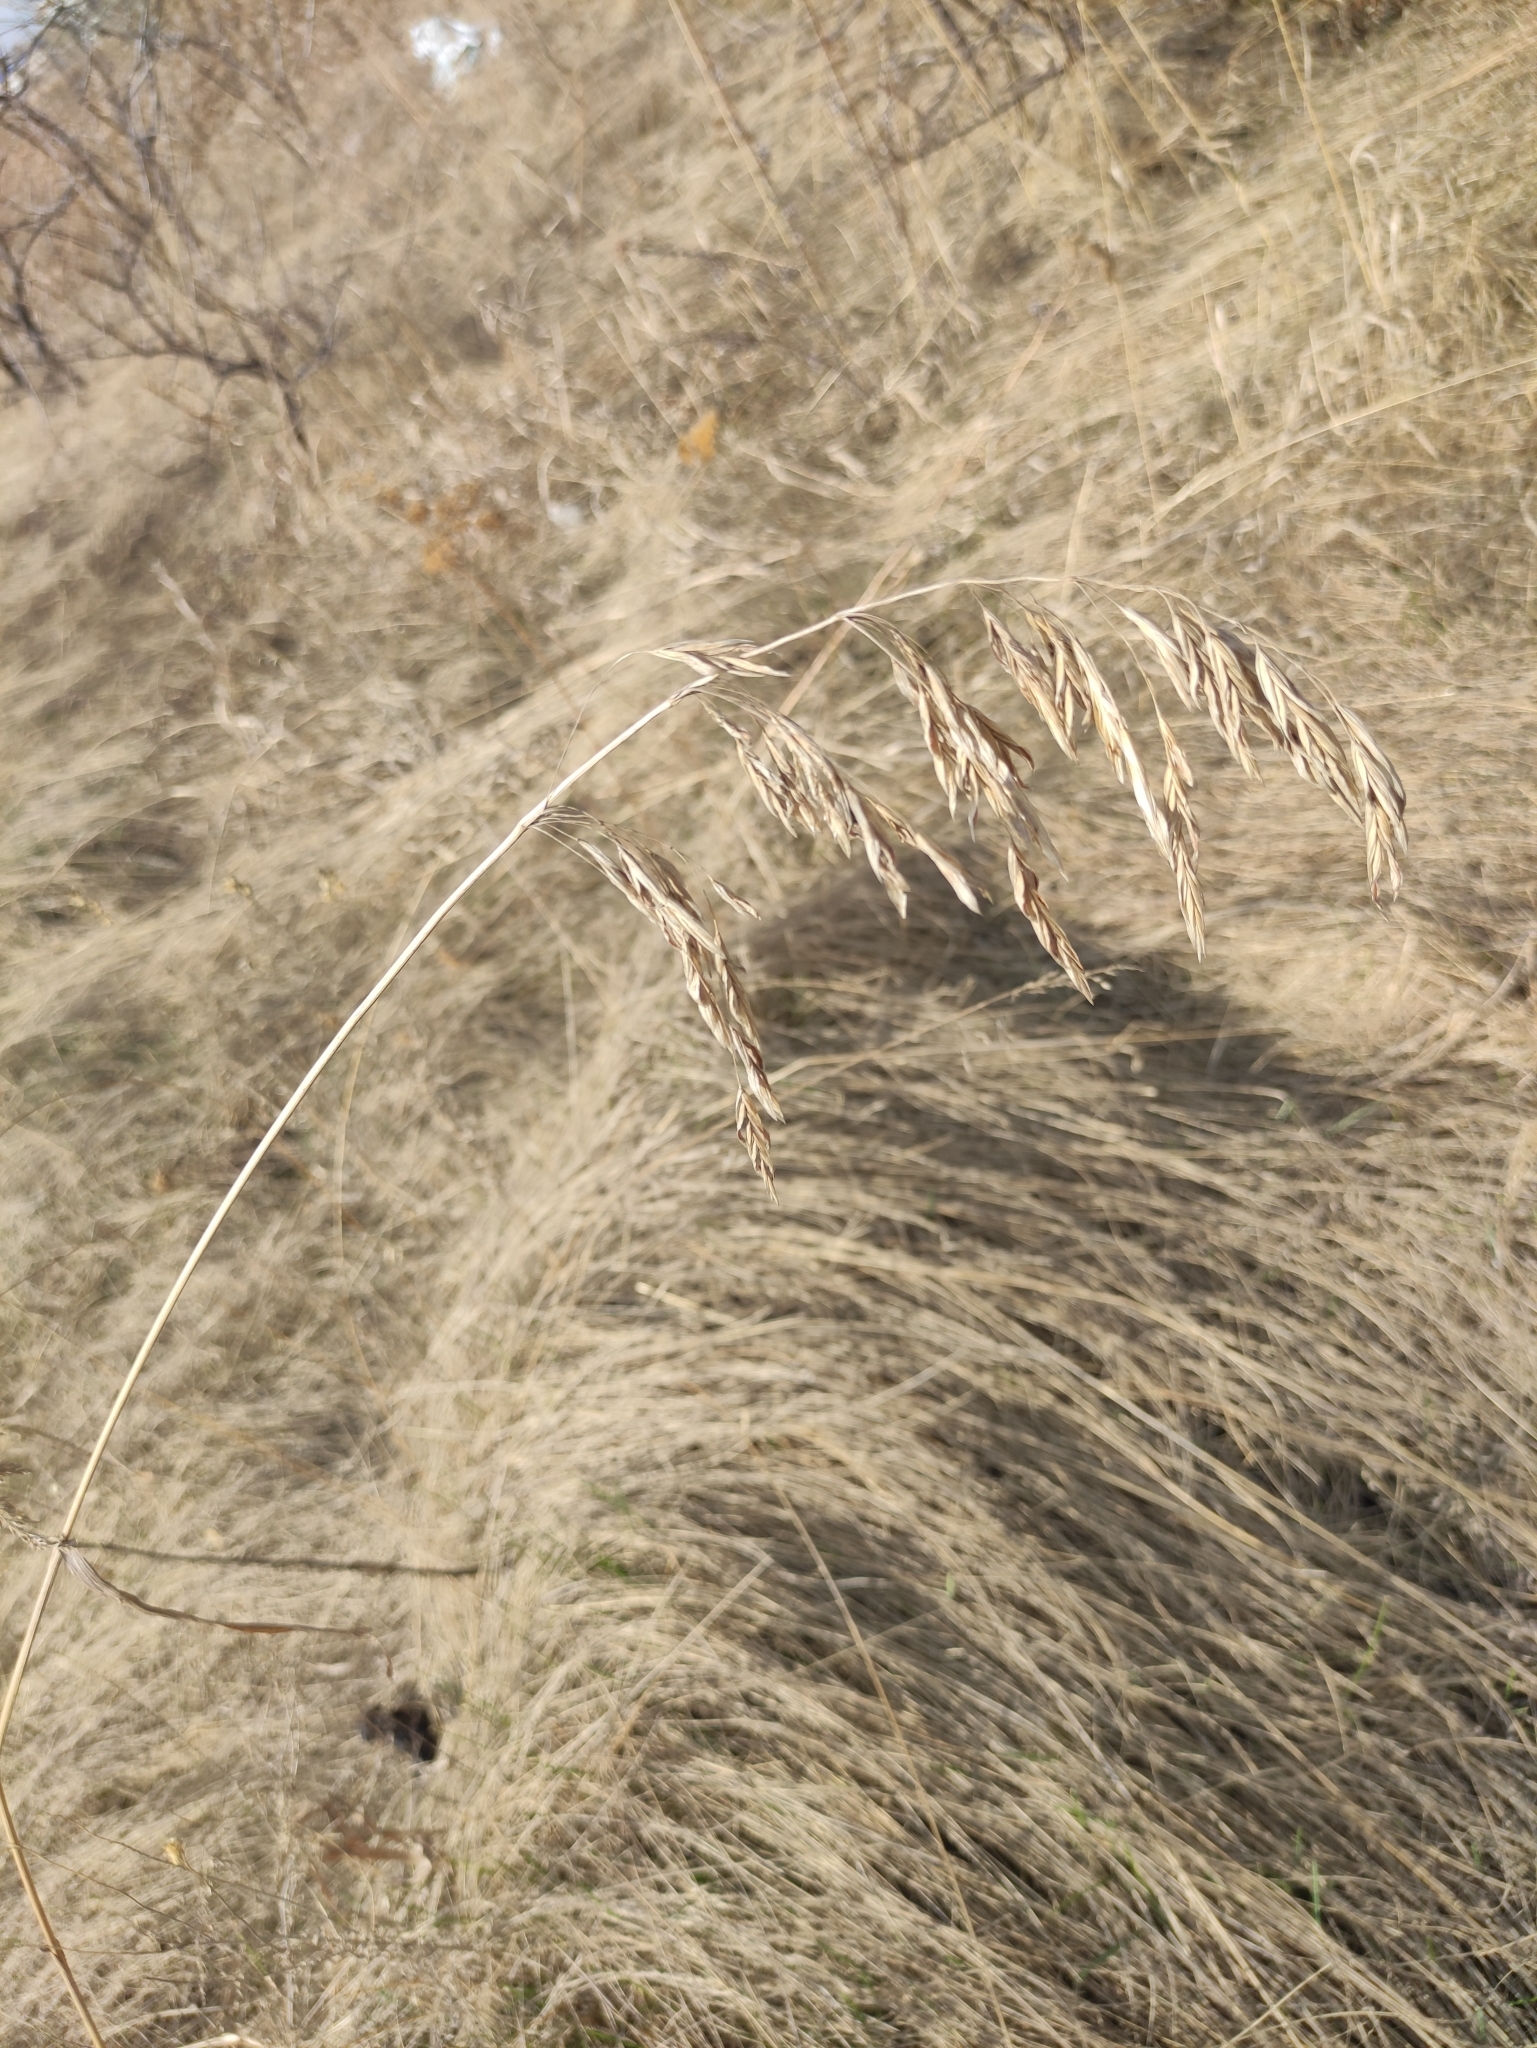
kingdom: Plantae
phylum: Tracheophyta
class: Liliopsida
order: Poales
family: Poaceae
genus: Bromus
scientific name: Bromus inermis
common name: Smooth brome
